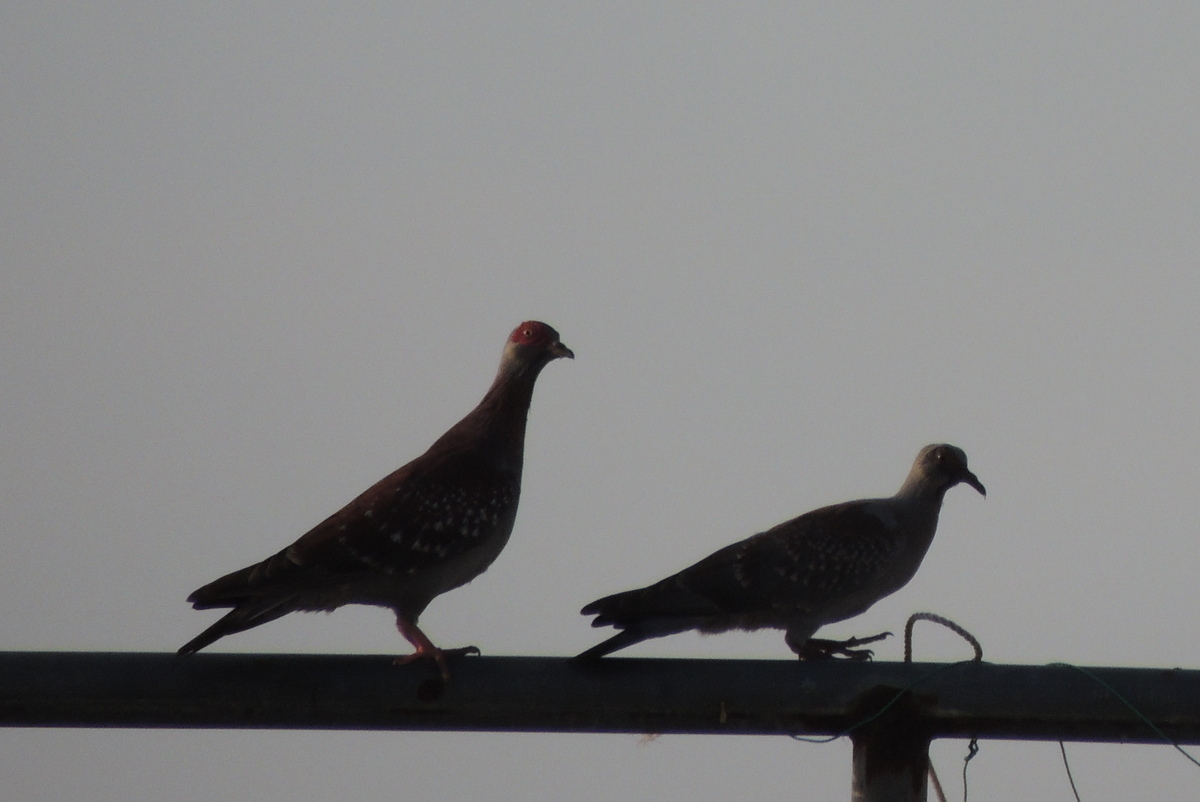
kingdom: Animalia
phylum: Chordata
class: Aves
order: Columbiformes
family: Columbidae
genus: Columba
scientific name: Columba guinea
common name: Speckled pigeon
